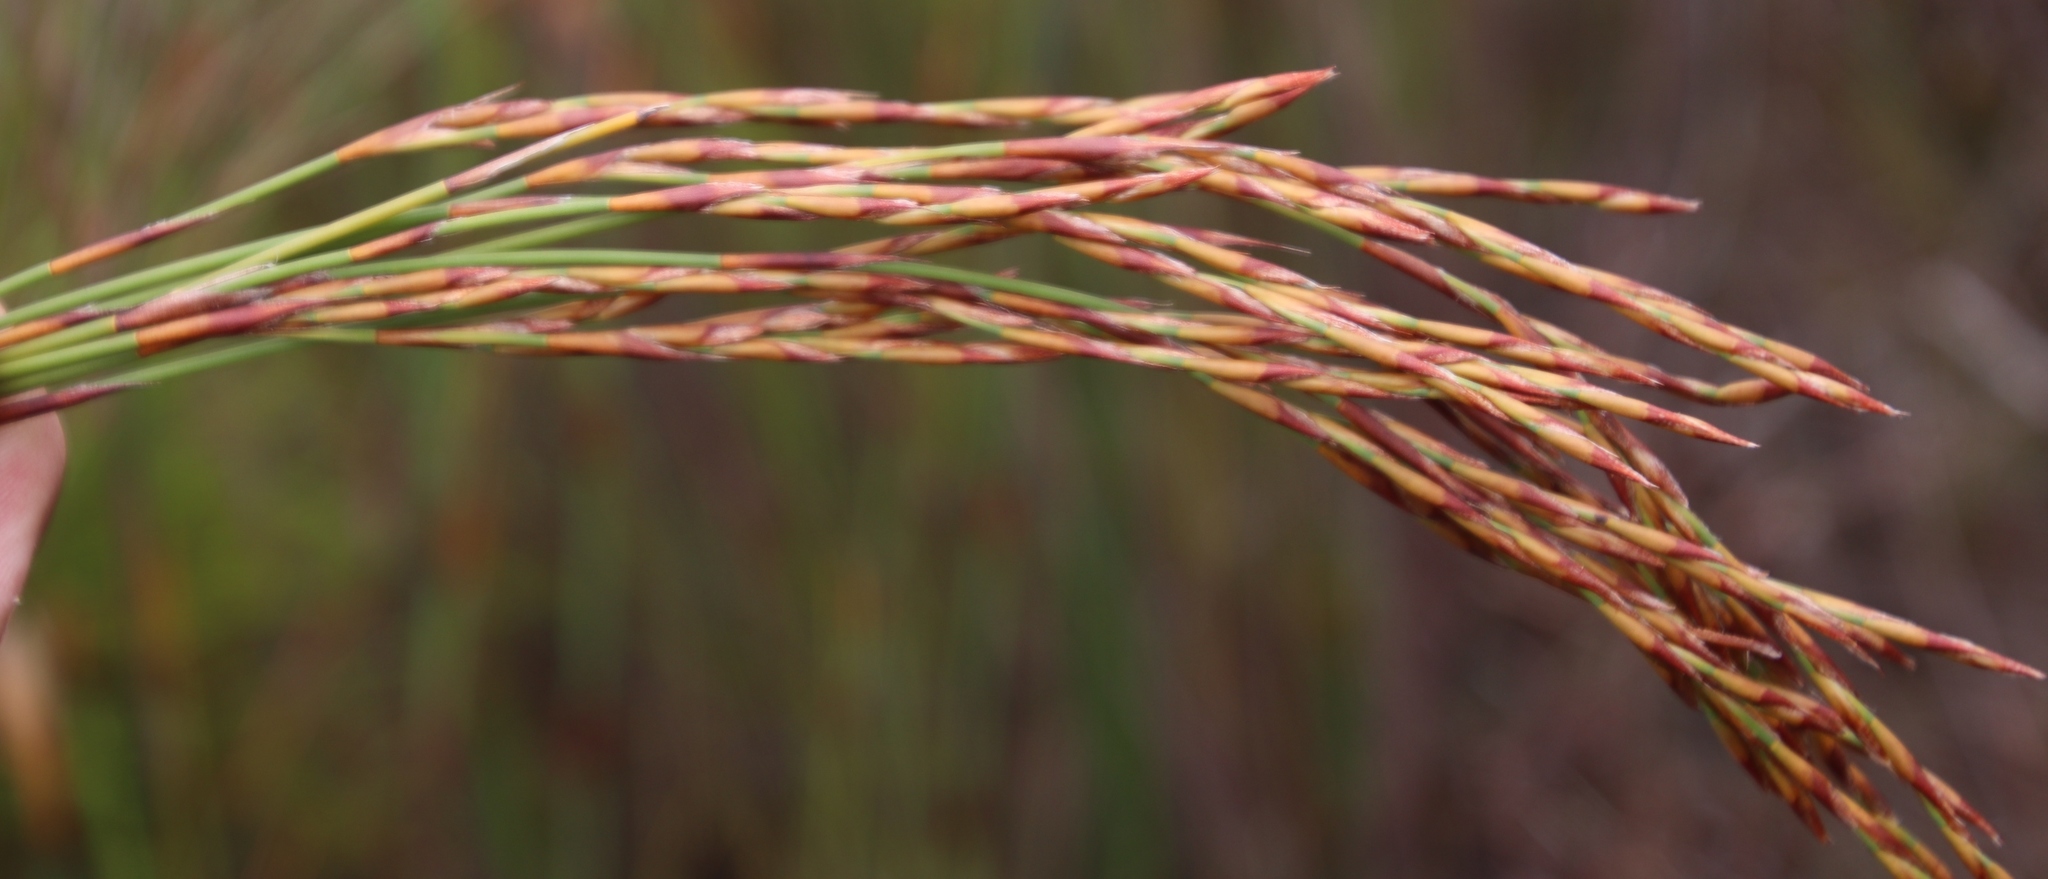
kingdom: Plantae
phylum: Tracheophyta
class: Liliopsida
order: Poales
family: Restionaceae
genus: Restio
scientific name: Restio dispar
